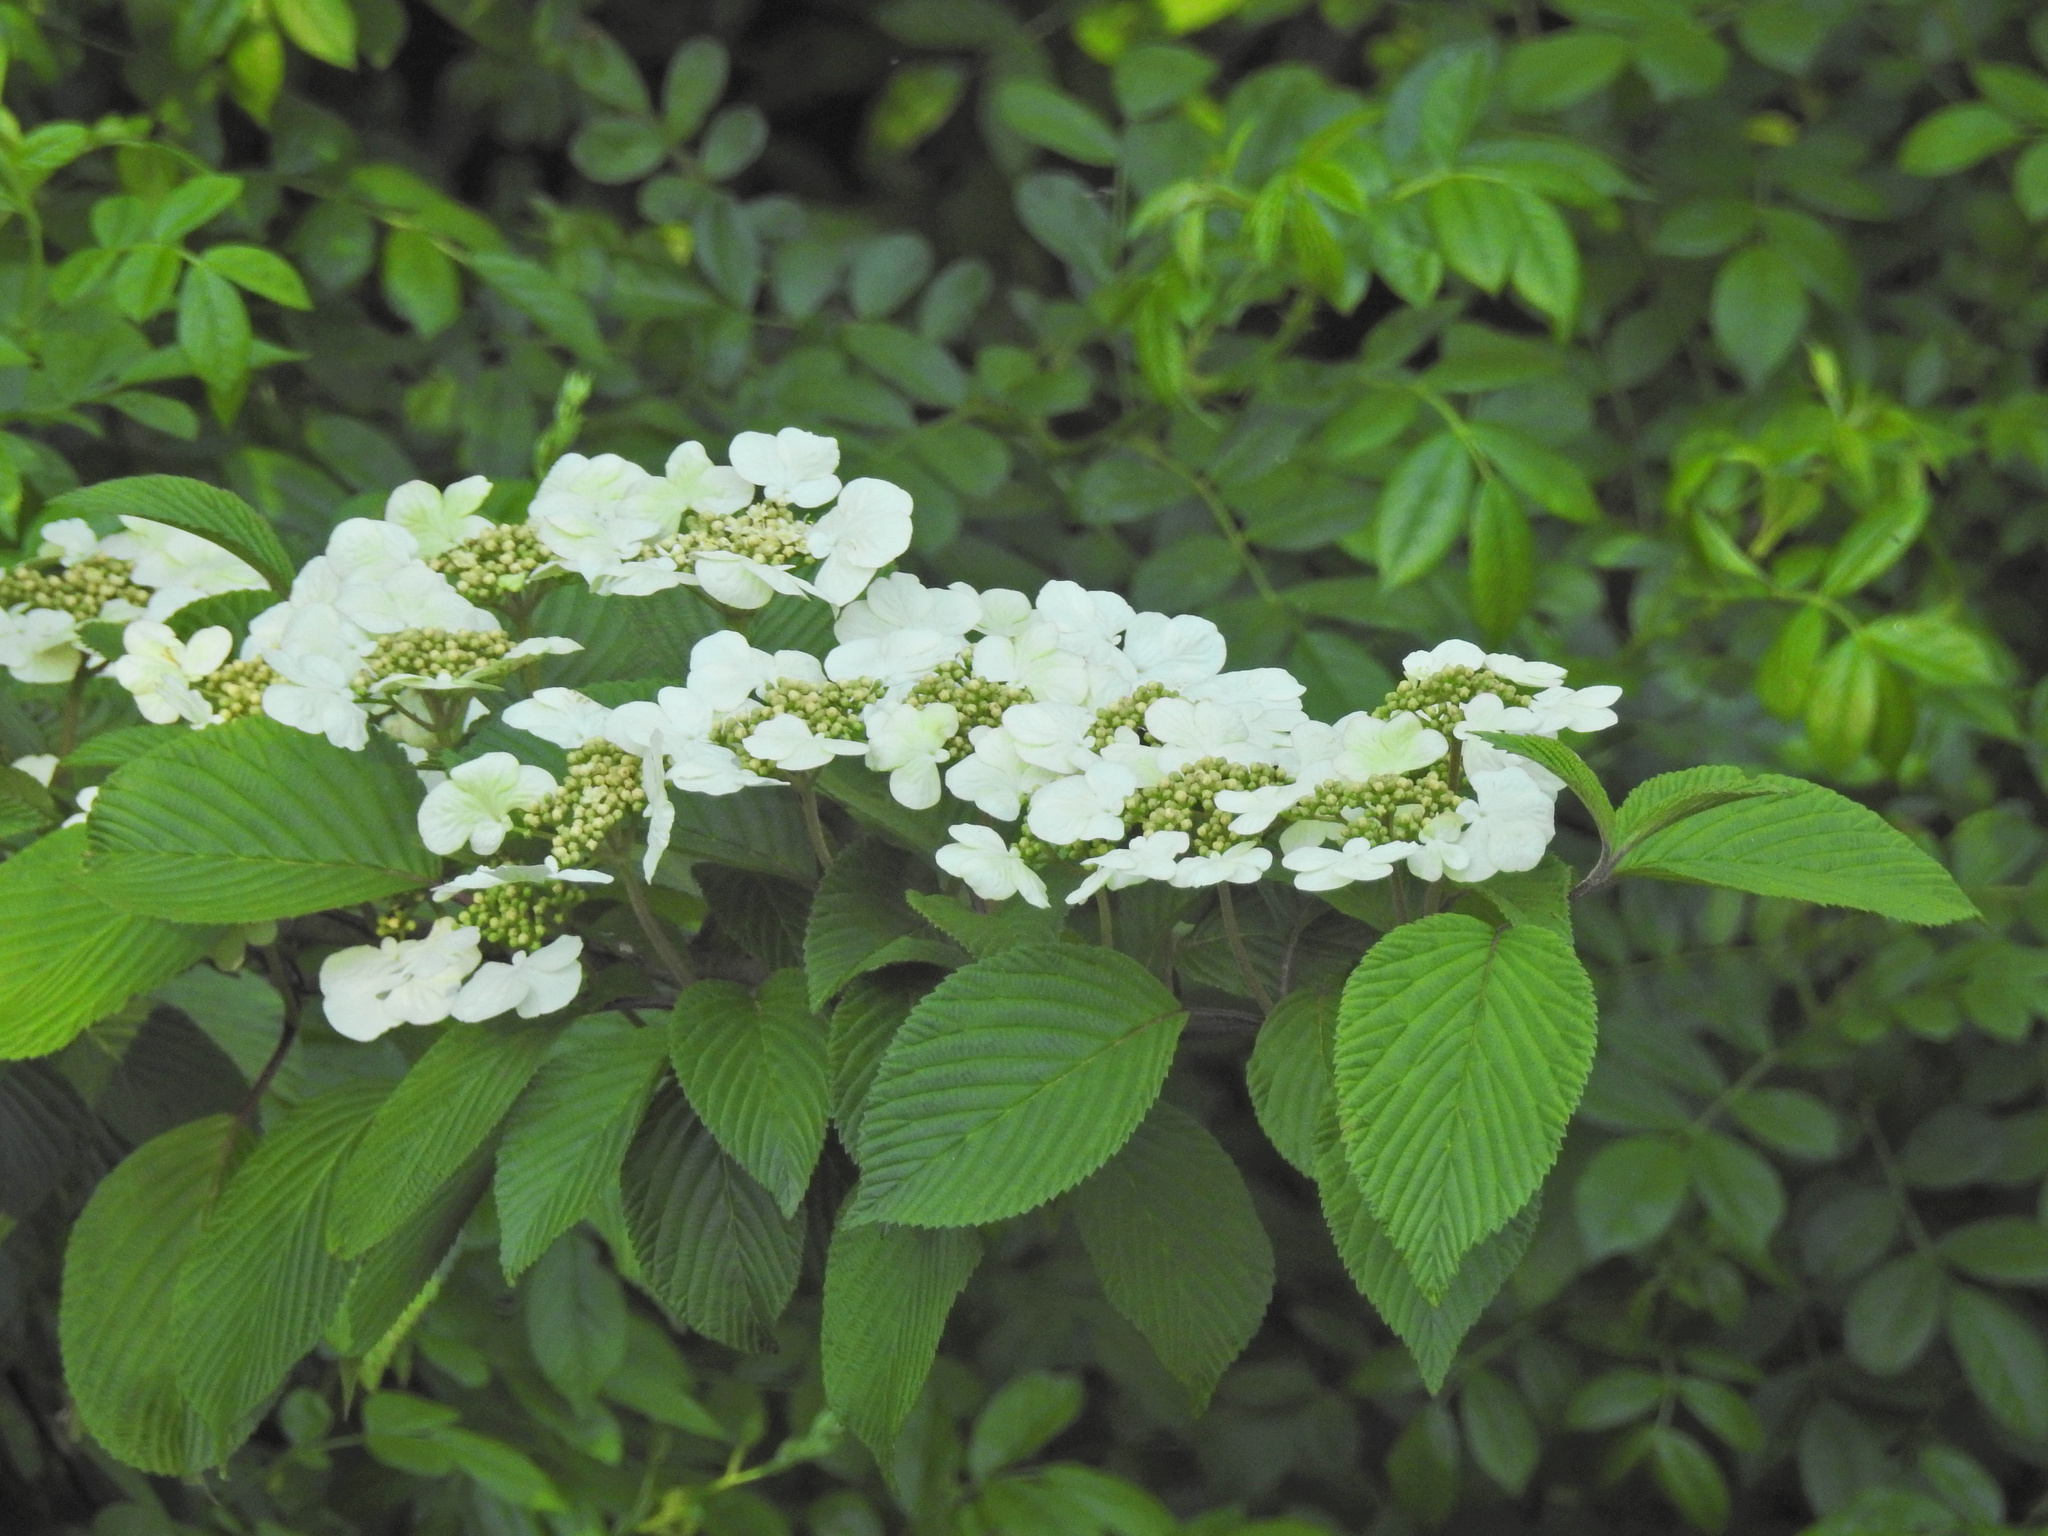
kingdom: Plantae
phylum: Tracheophyta
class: Magnoliopsida
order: Dipsacales
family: Viburnaceae
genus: Viburnum
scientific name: Viburnum plicatum
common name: Japanese snowball
